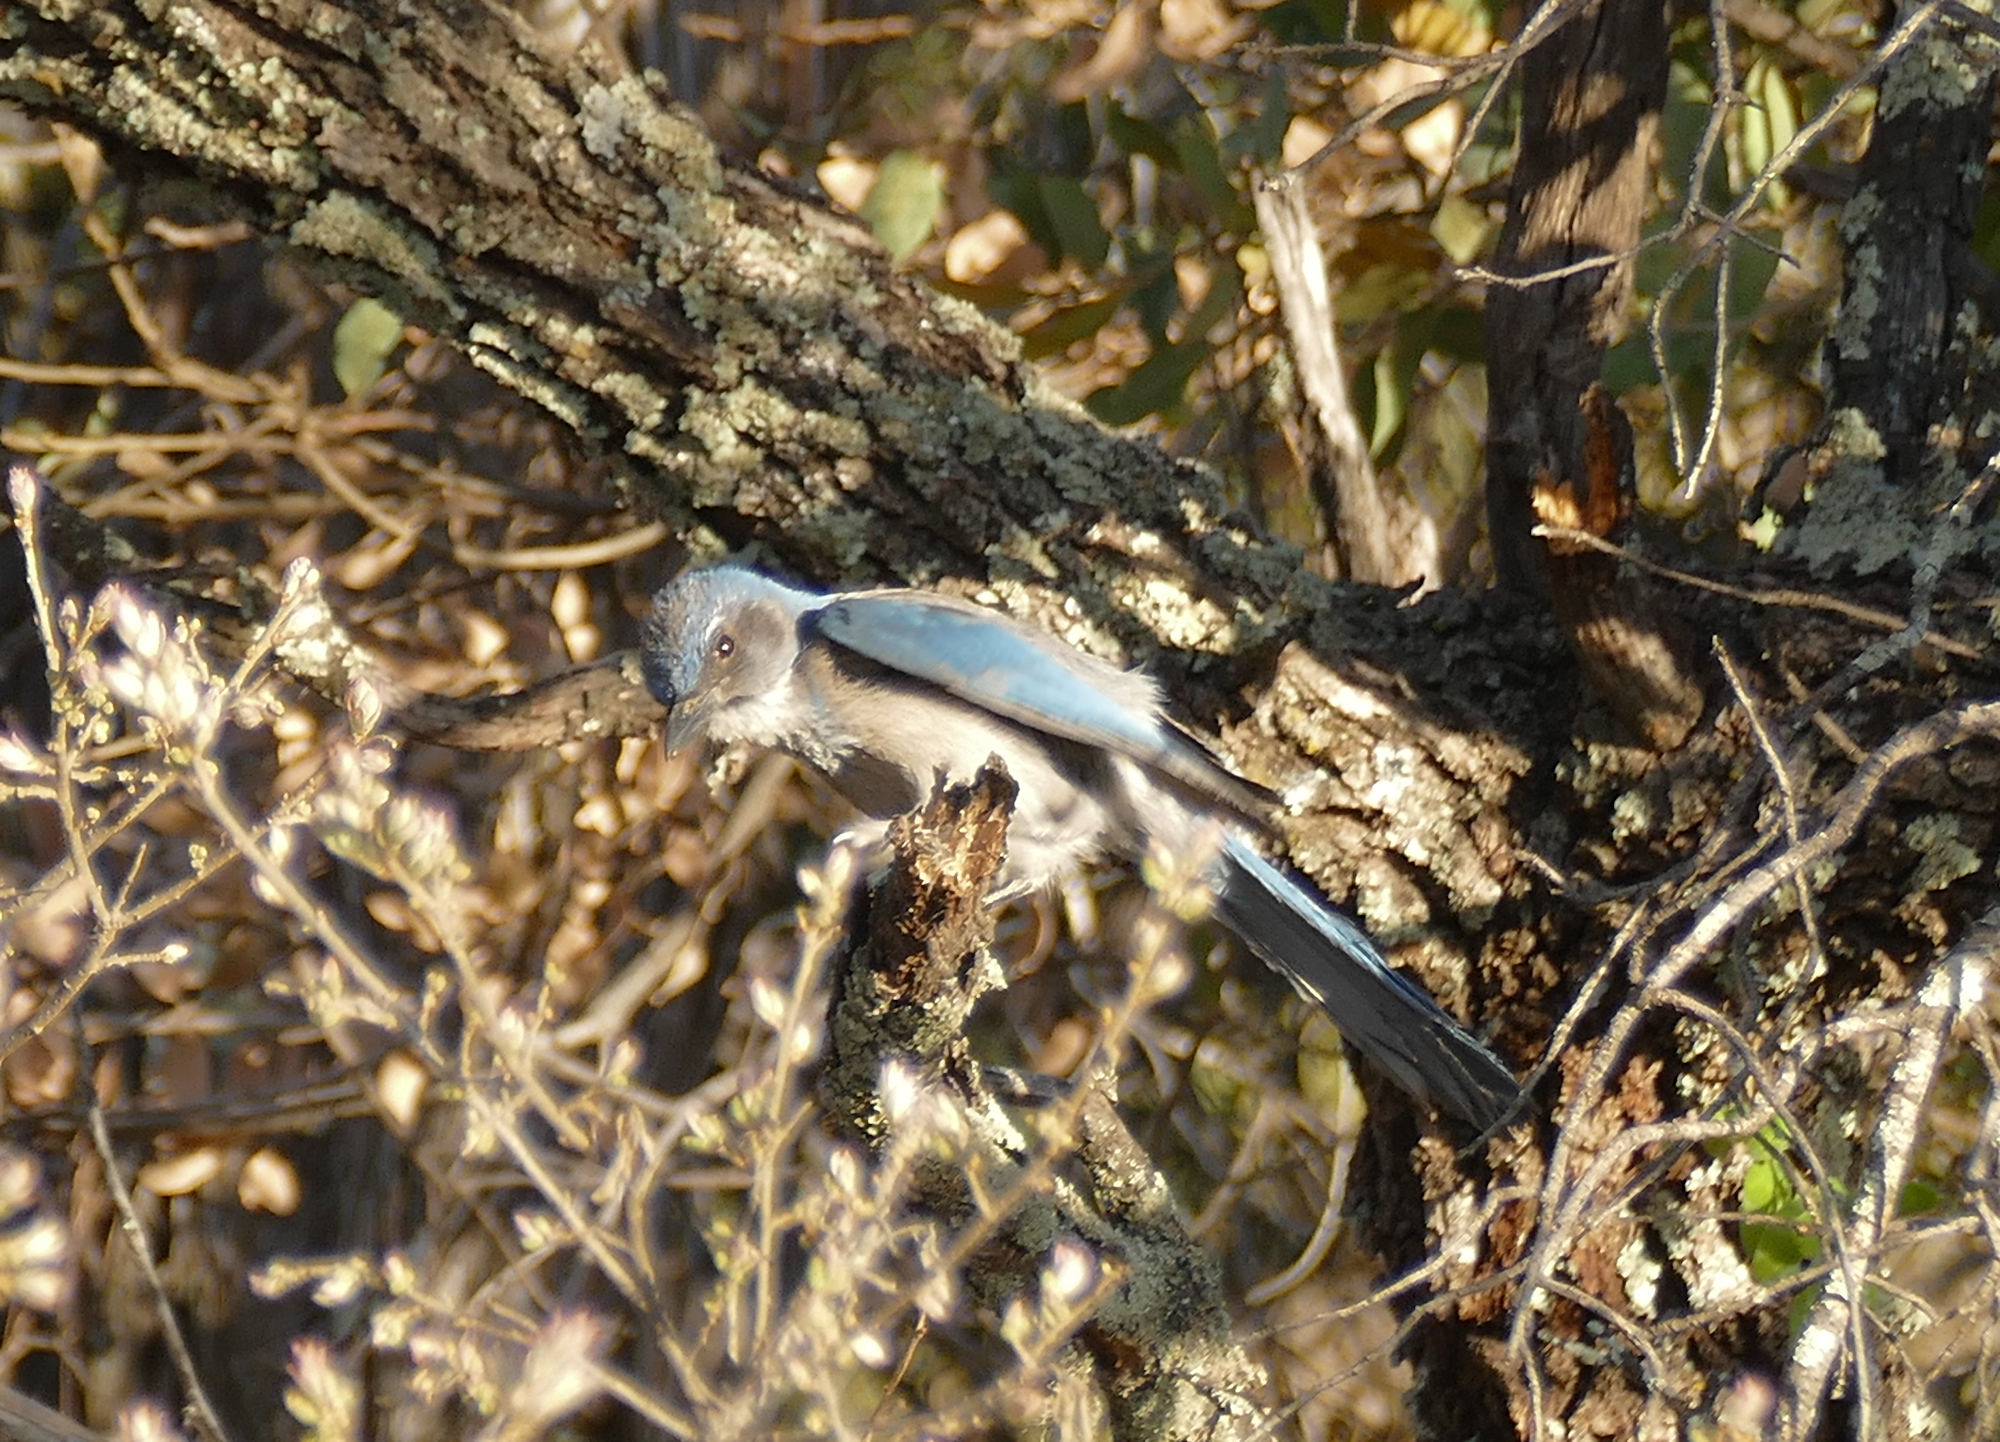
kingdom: Animalia
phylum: Chordata
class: Aves
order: Passeriformes
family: Corvidae
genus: Aphelocoma
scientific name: Aphelocoma woodhouseii
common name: Woodhouse's scrub-jay
